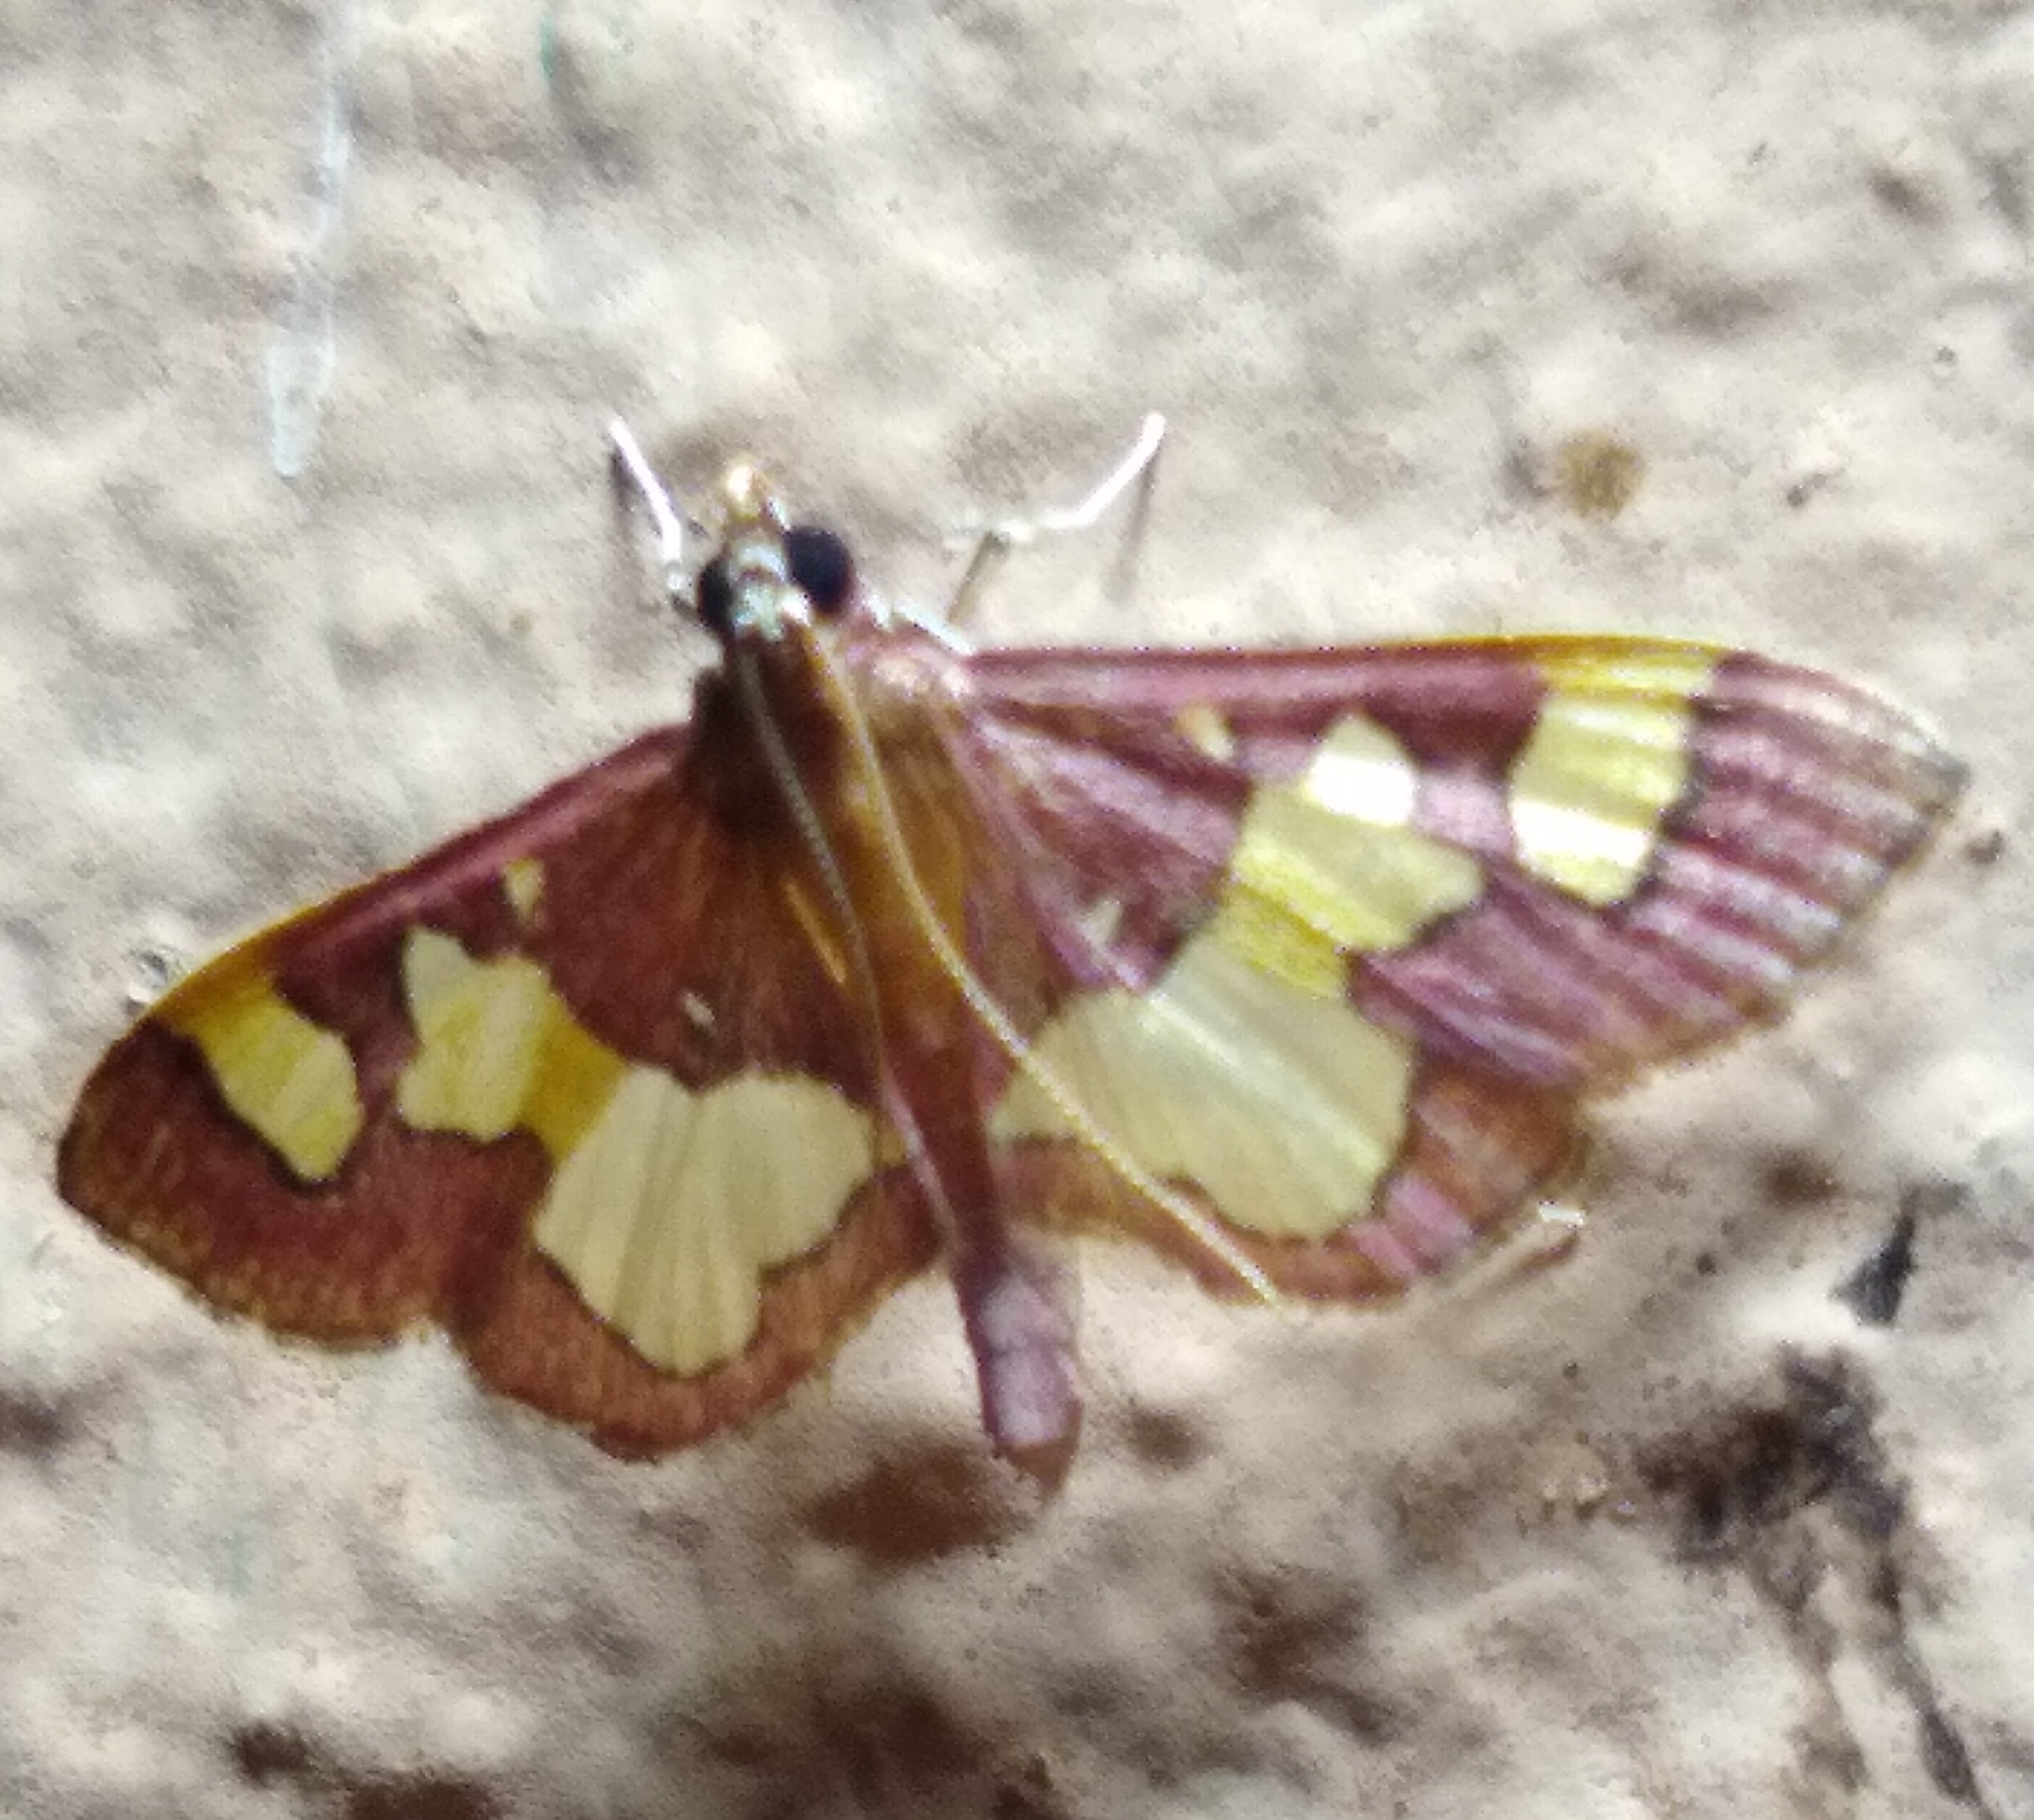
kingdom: Animalia
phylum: Arthropoda
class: Insecta
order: Lepidoptera
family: Crambidae
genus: Colomychus
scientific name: Colomychus talis
